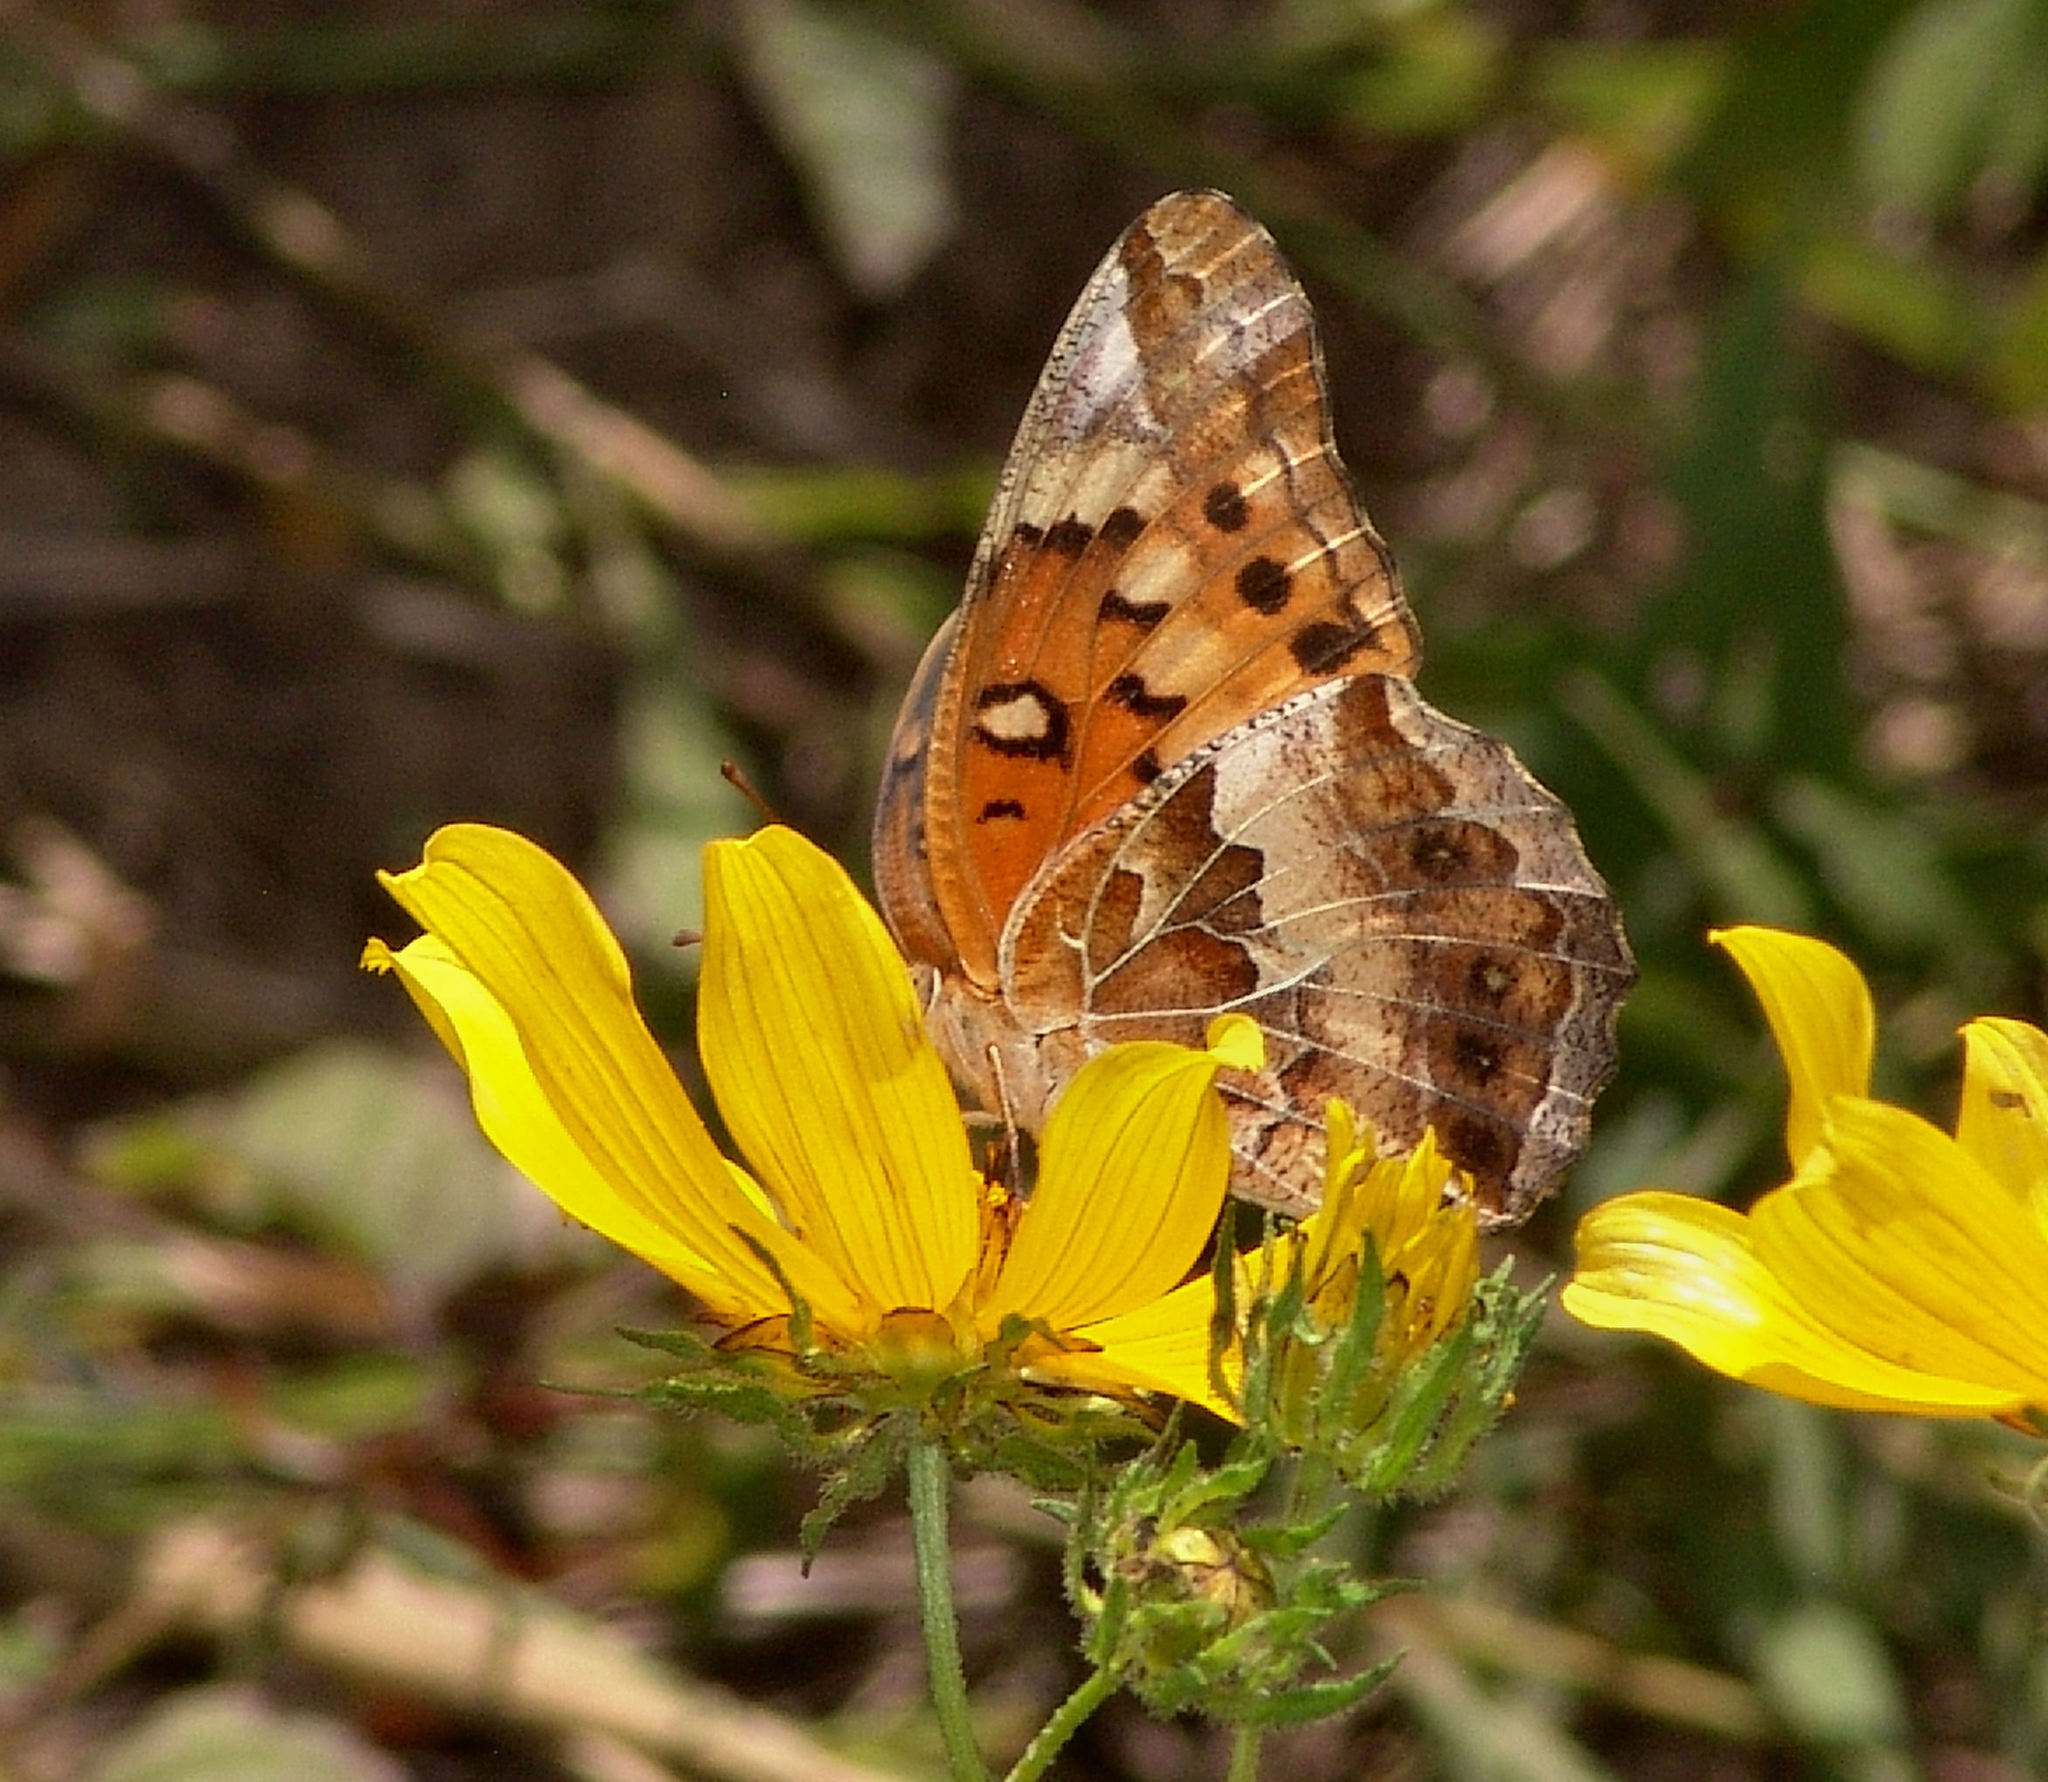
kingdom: Animalia
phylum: Arthropoda
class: Insecta
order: Lepidoptera
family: Nymphalidae
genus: Euptoieta
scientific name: Euptoieta claudia
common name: Variegated fritillary
